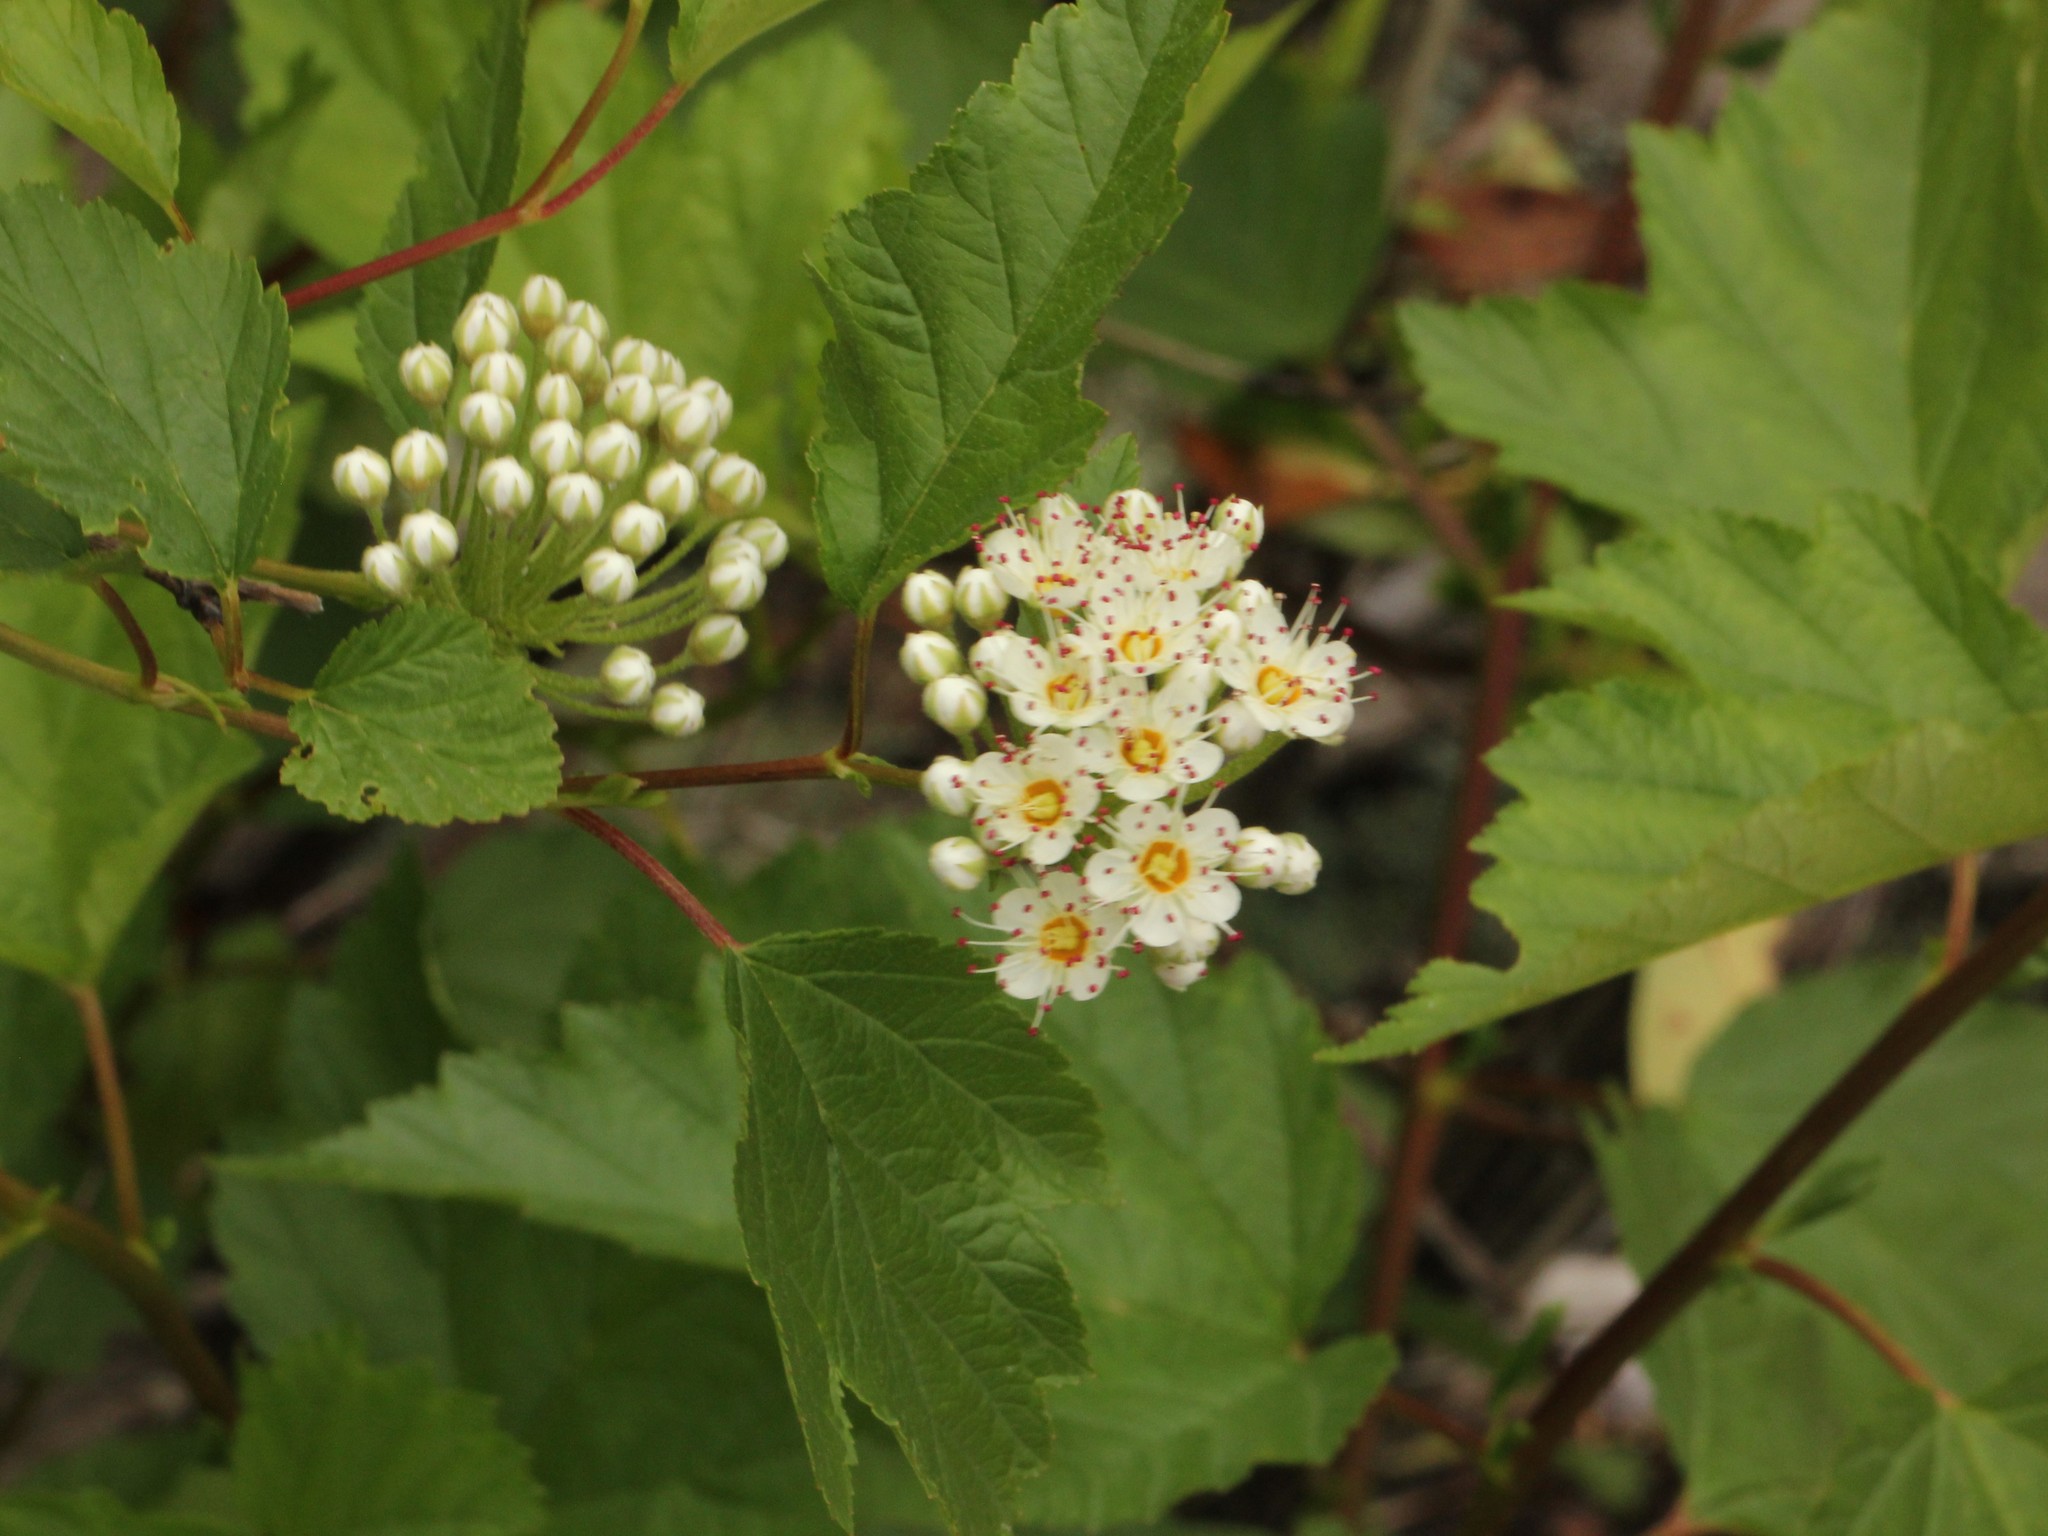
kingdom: Plantae
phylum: Tracheophyta
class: Magnoliopsida
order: Rosales
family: Rosaceae
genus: Physocarpus
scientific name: Physocarpus opulifolius
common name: Ninebark
